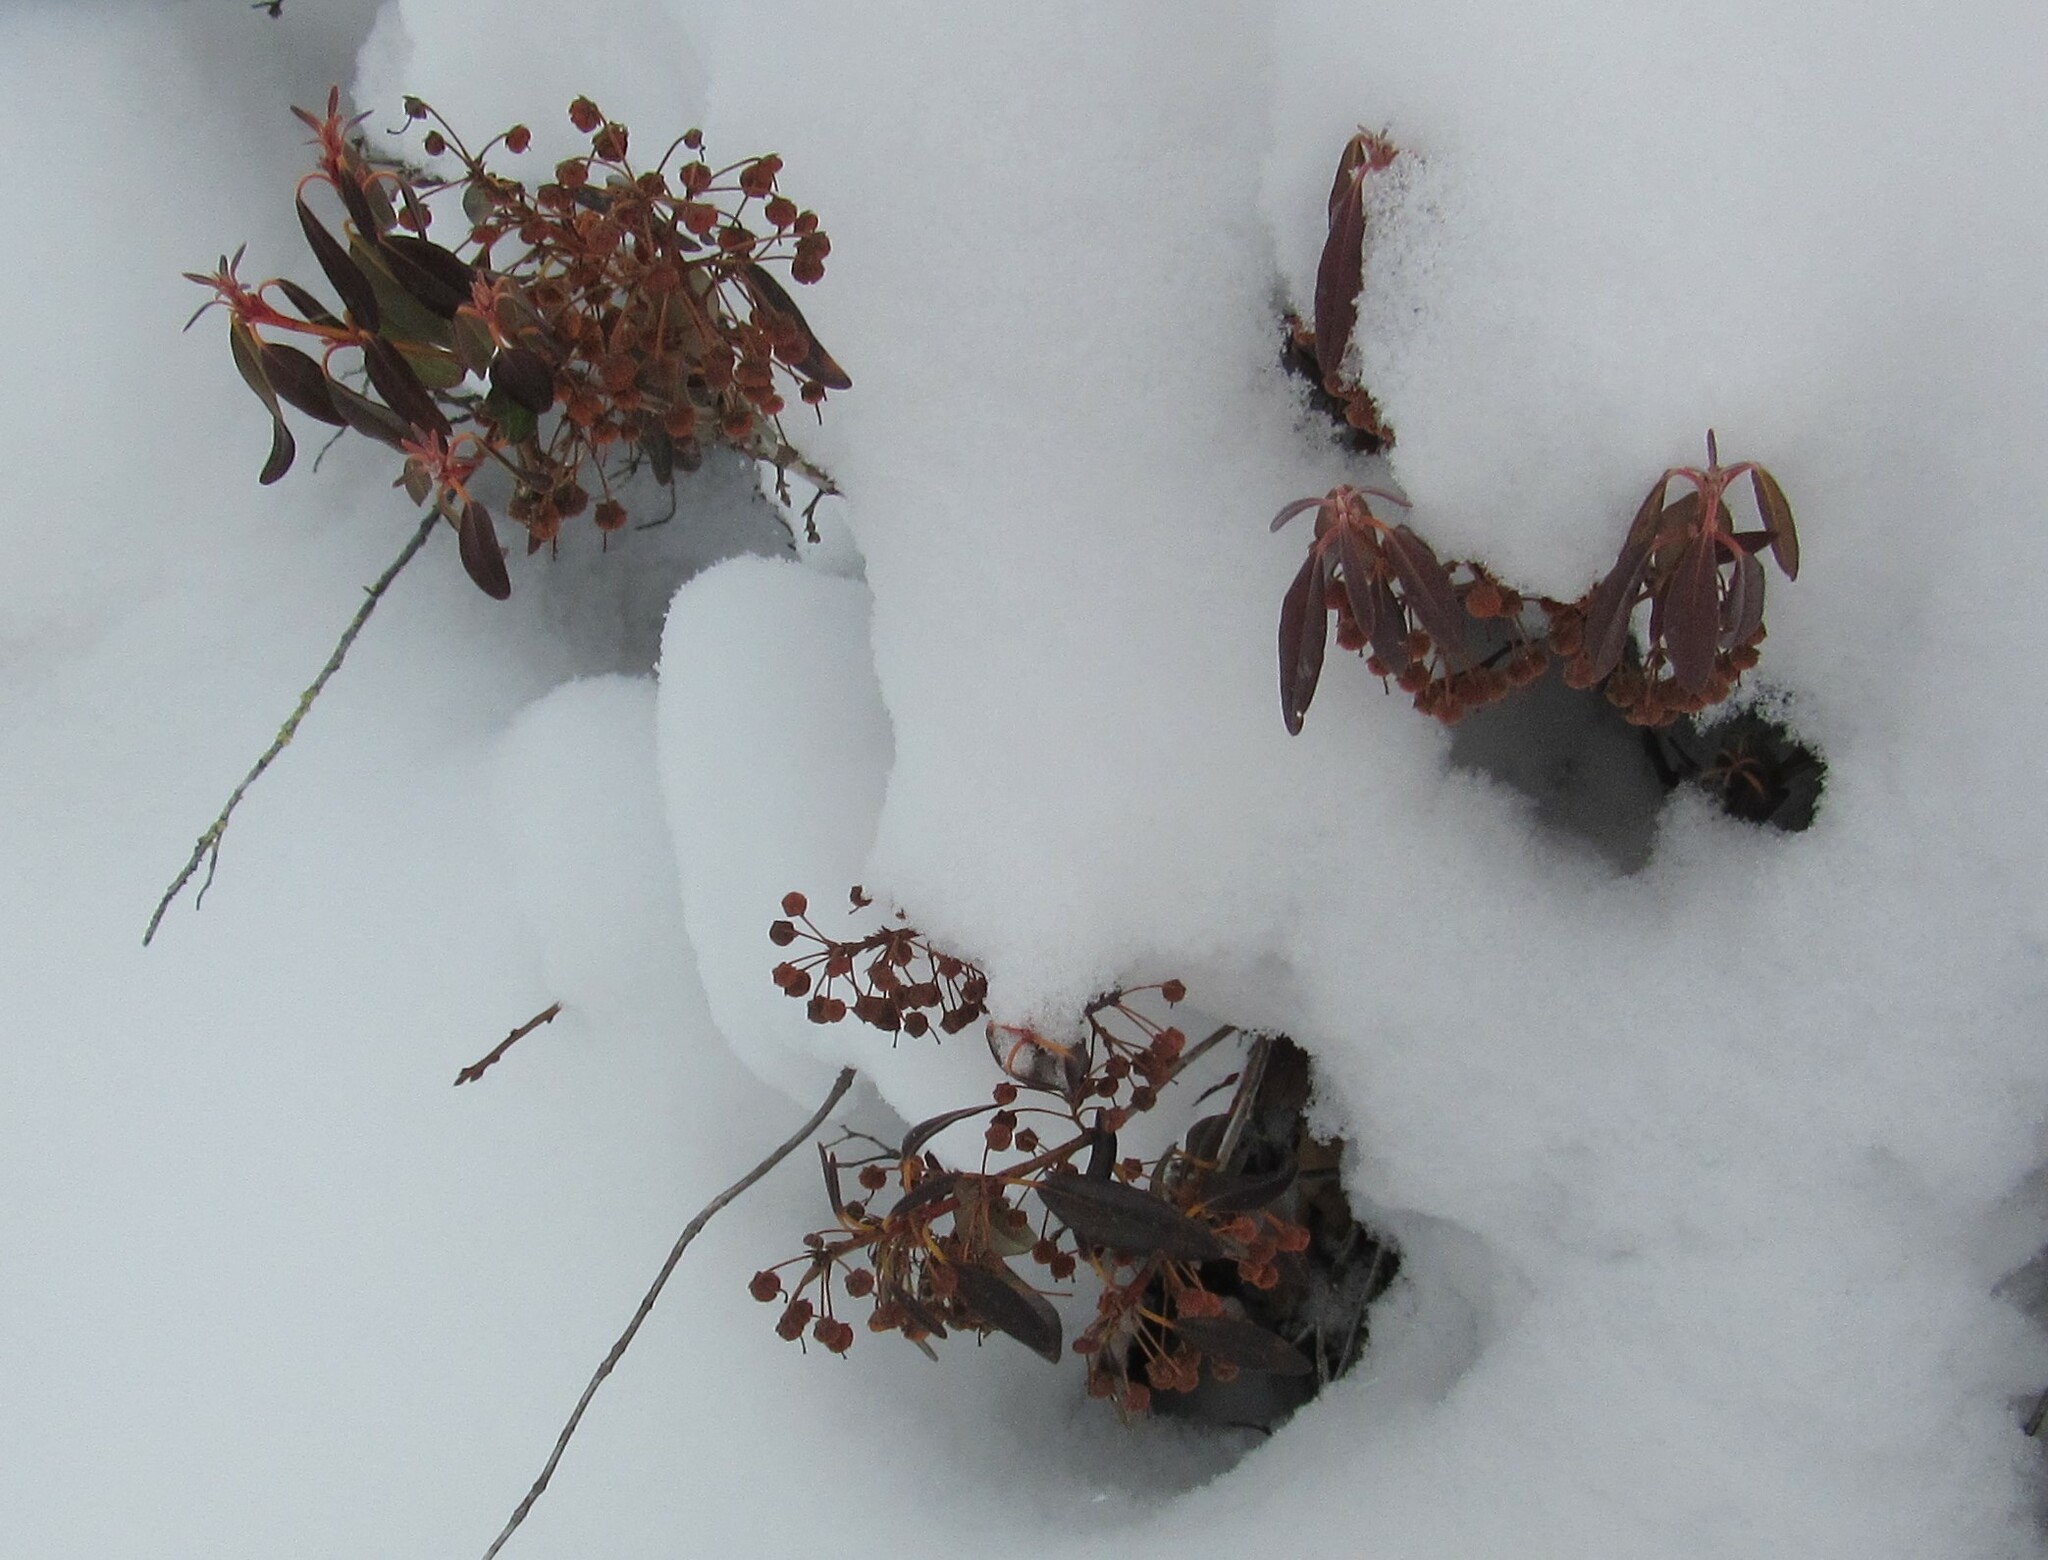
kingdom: Plantae
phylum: Tracheophyta
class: Magnoliopsida
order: Ericales
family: Ericaceae
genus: Kalmia
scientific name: Kalmia angustifolia
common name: Sheep-laurel
